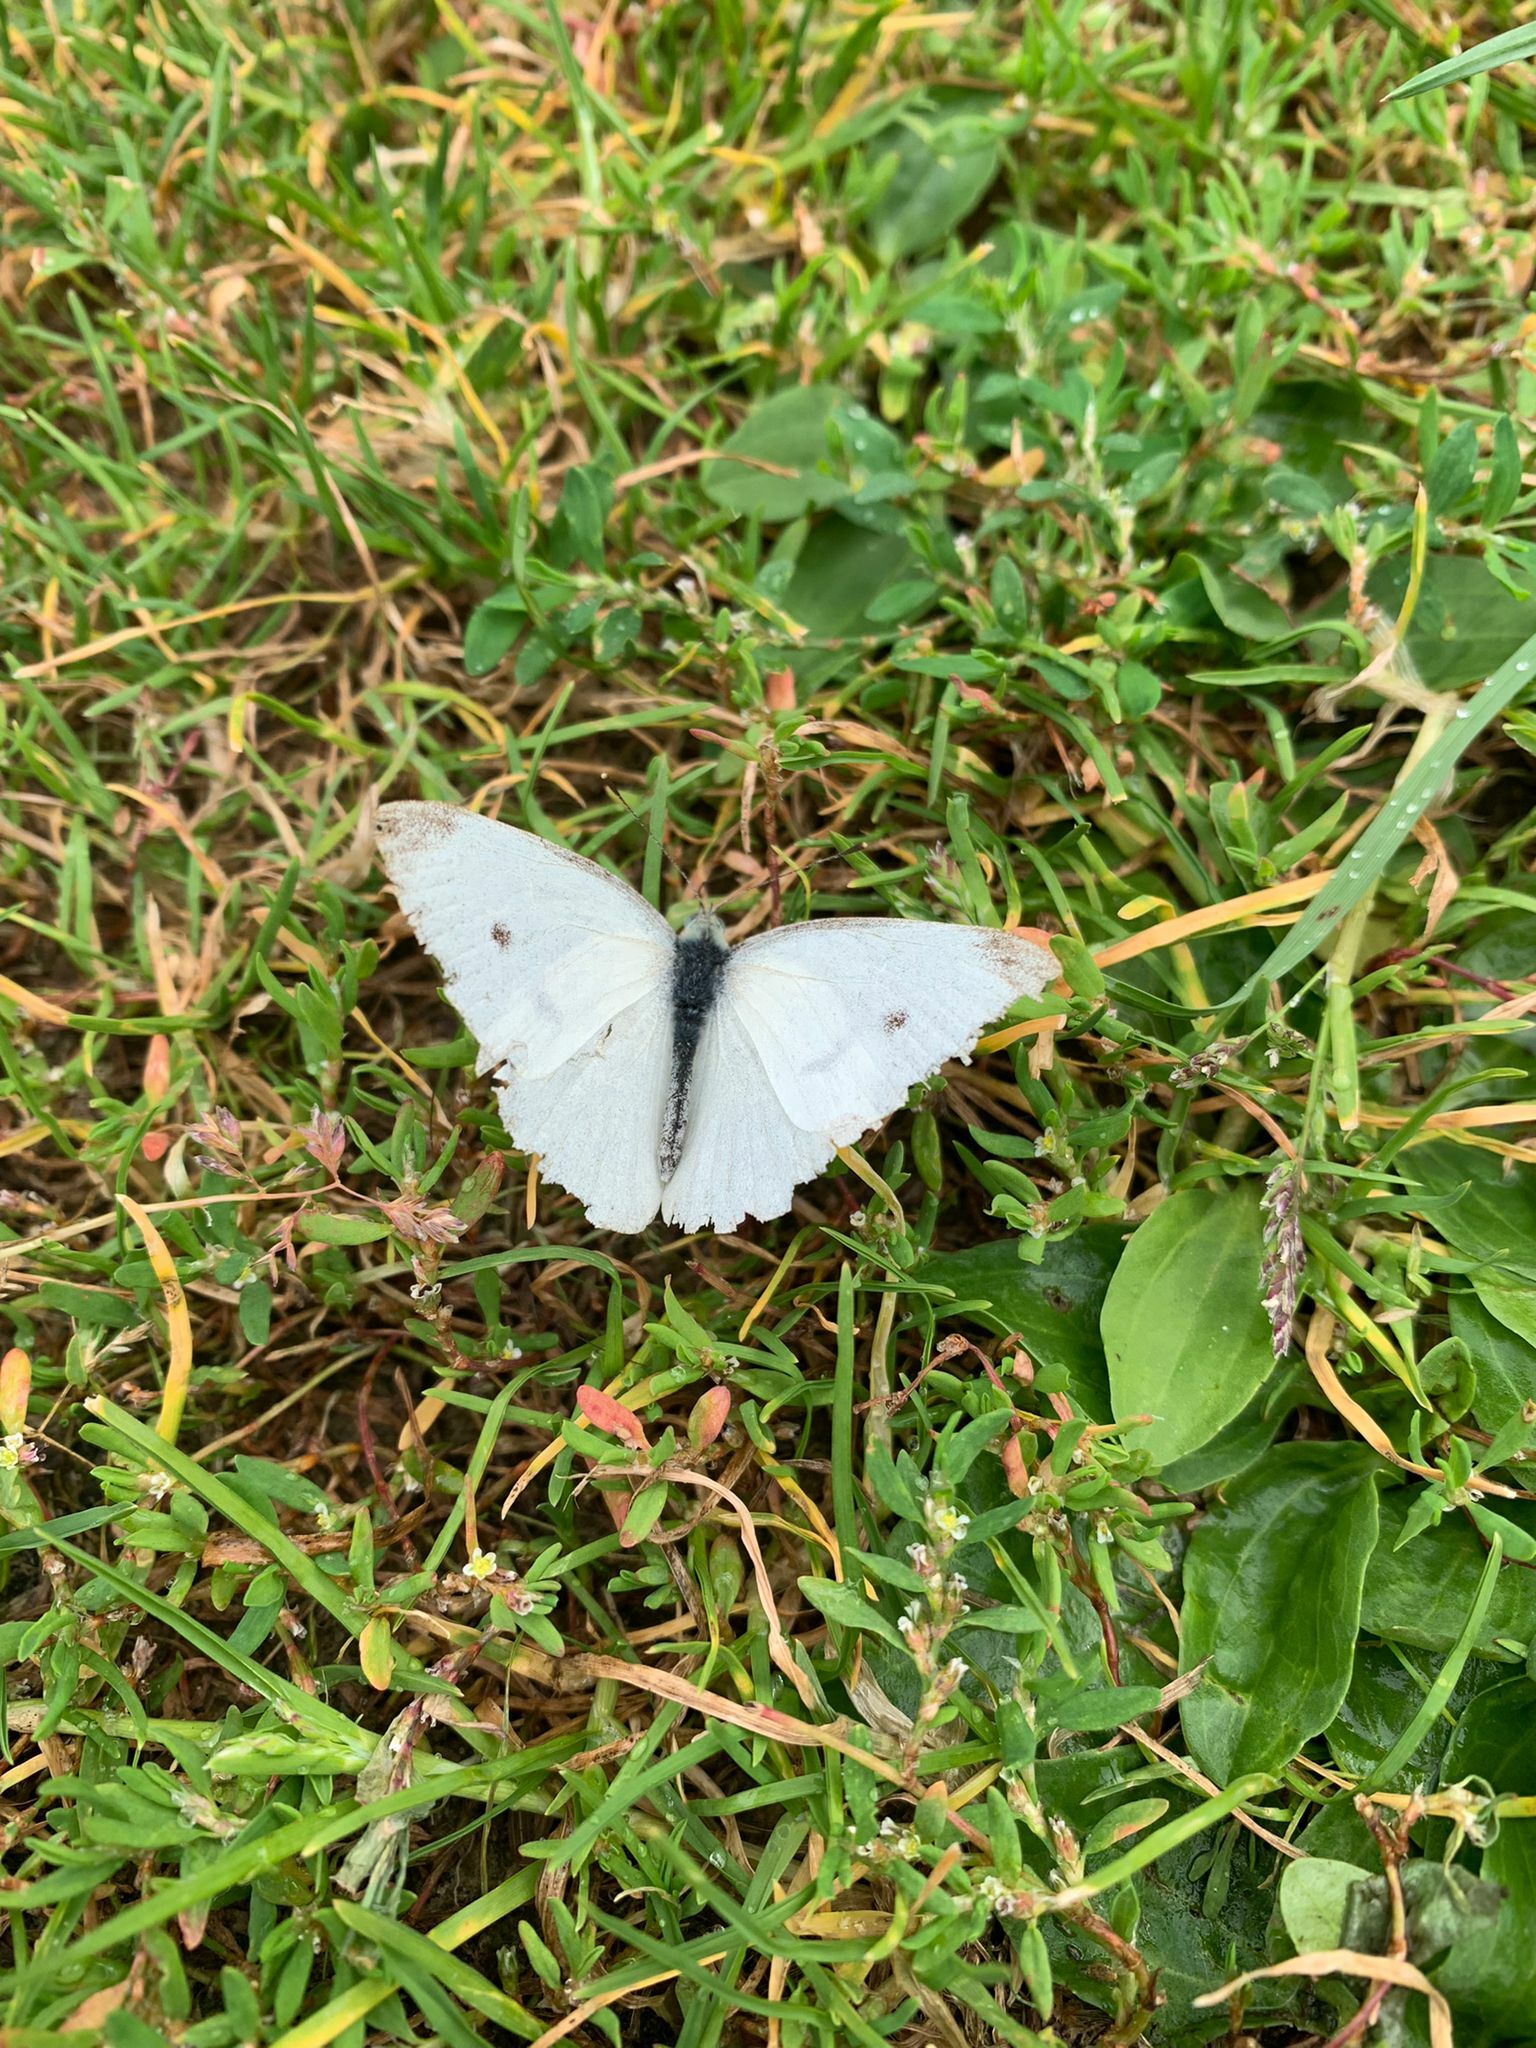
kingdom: Animalia
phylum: Arthropoda
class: Insecta
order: Lepidoptera
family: Pieridae
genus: Pieris
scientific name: Pieris rapae
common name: Small white
